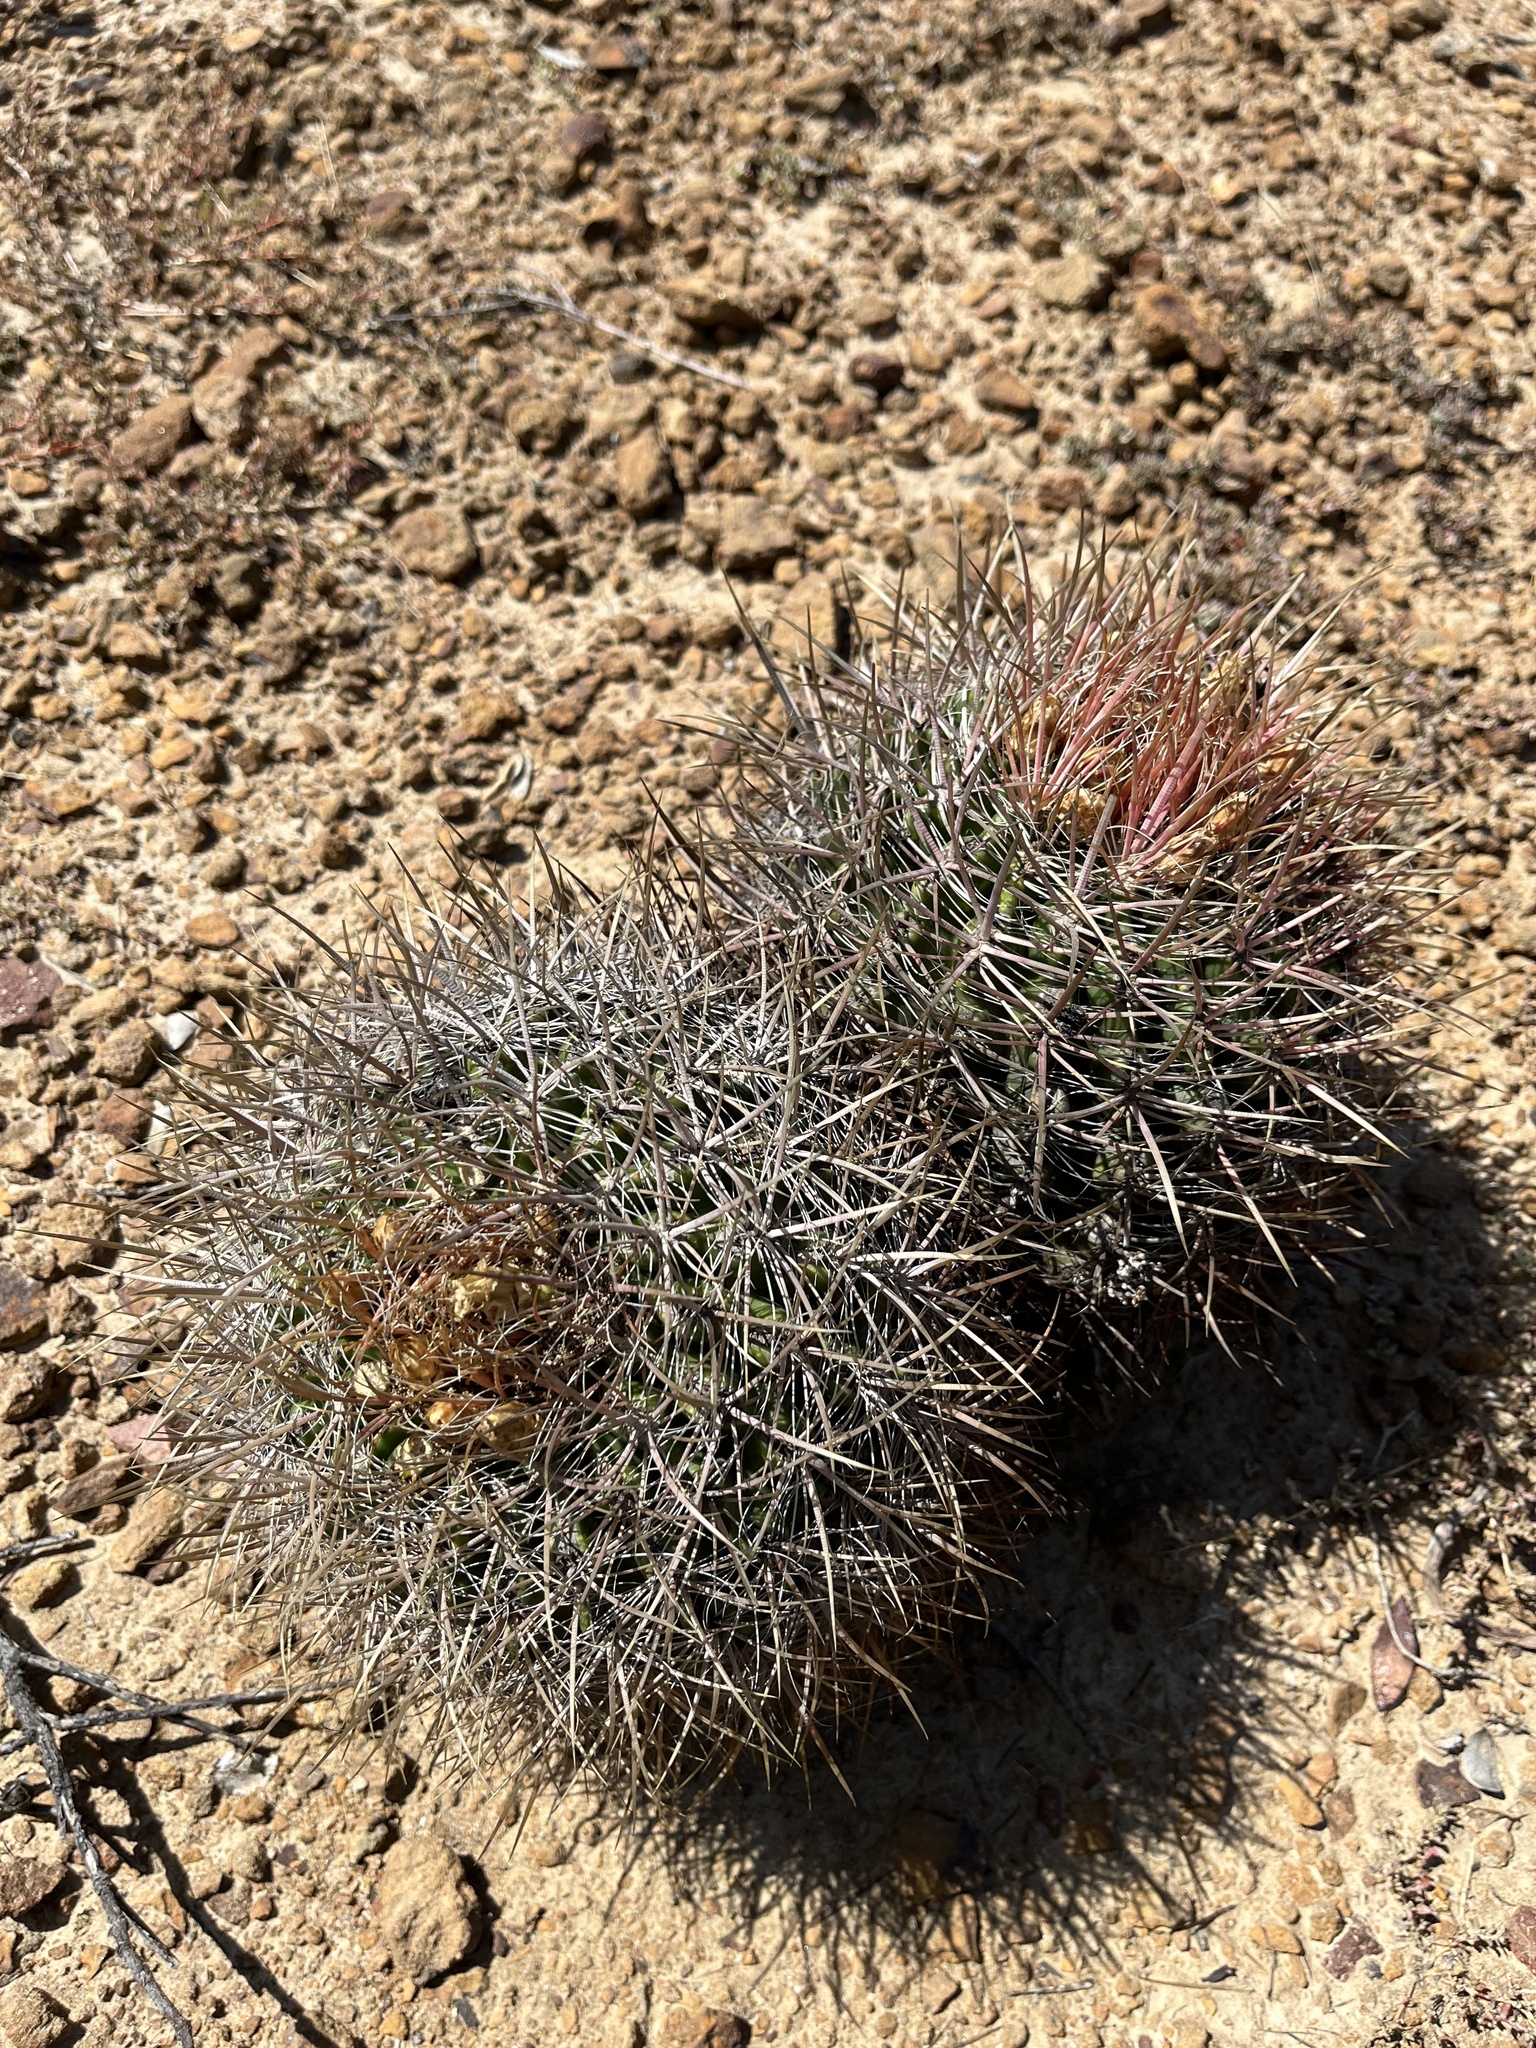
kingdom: Plantae
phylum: Tracheophyta
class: Magnoliopsida
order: Caryophyllales
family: Cactaceae
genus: Ferocactus
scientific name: Ferocactus viridescens
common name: San diego barrel cactus
